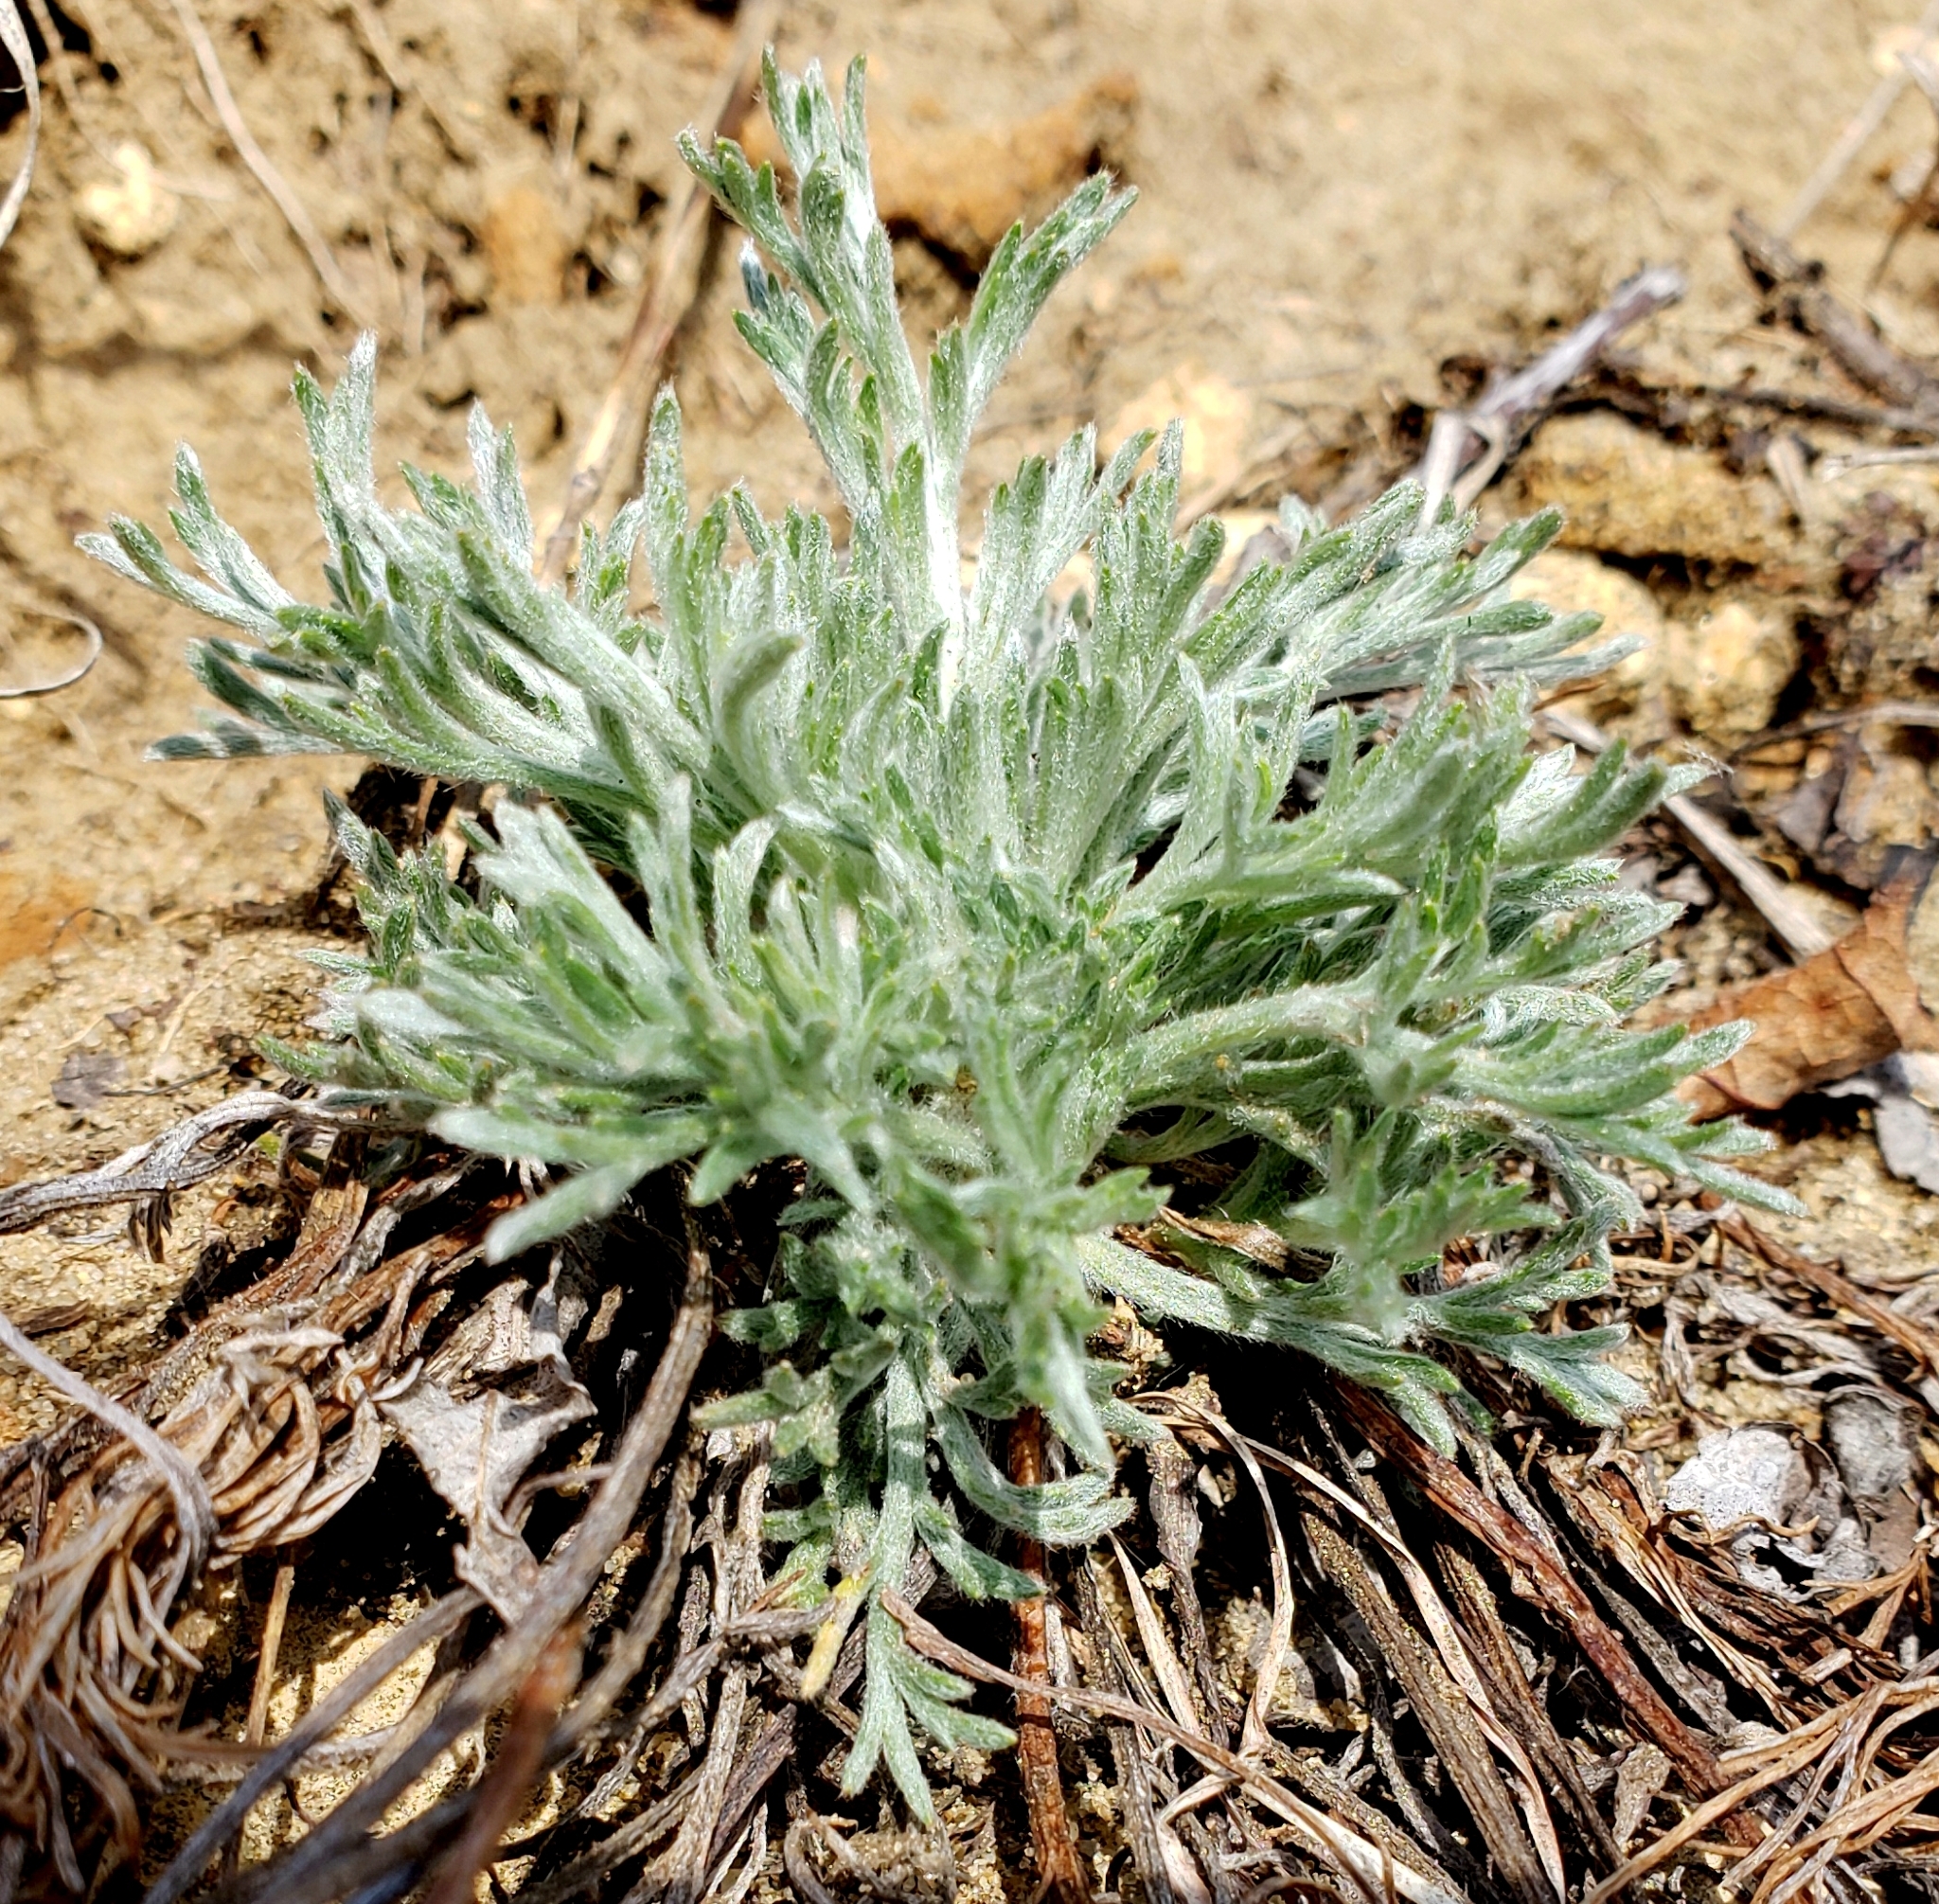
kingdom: Plantae
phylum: Tracheophyta
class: Magnoliopsida
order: Asterales
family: Asteraceae
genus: Artemisia
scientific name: Artemisia campestris
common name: Field wormwood
